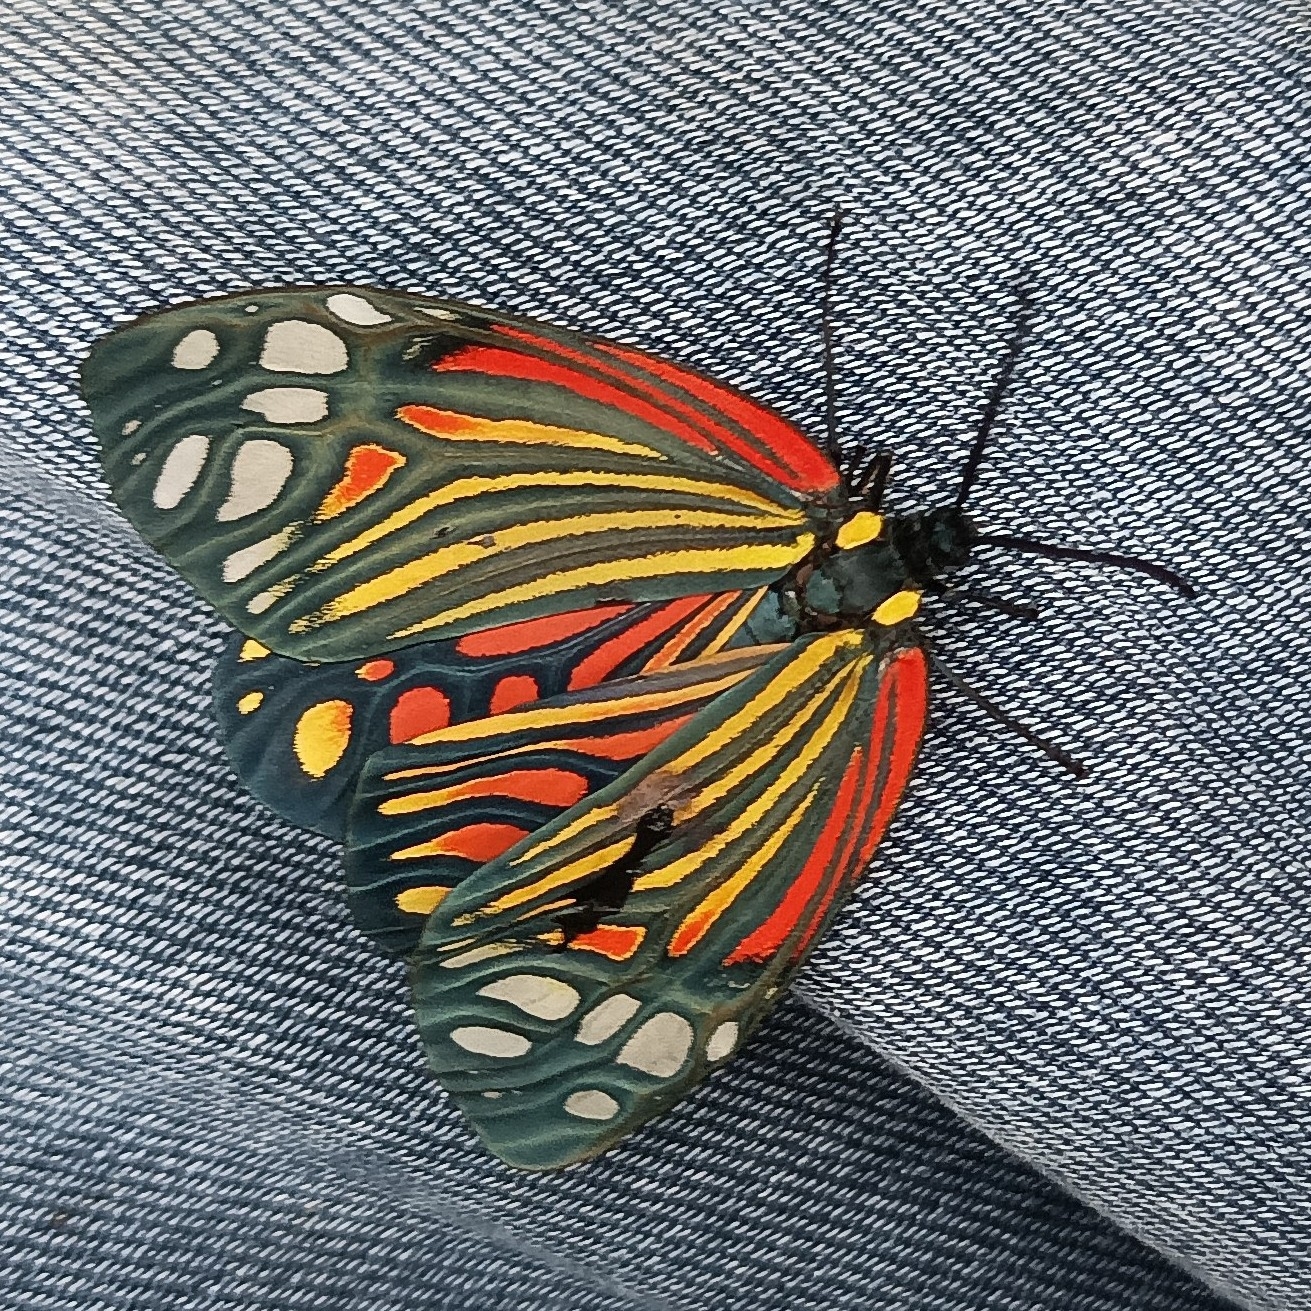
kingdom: Animalia
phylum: Arthropoda
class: Insecta
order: Lepidoptera
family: Zygaenidae
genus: Campylotes
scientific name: Campylotes histrionicus
